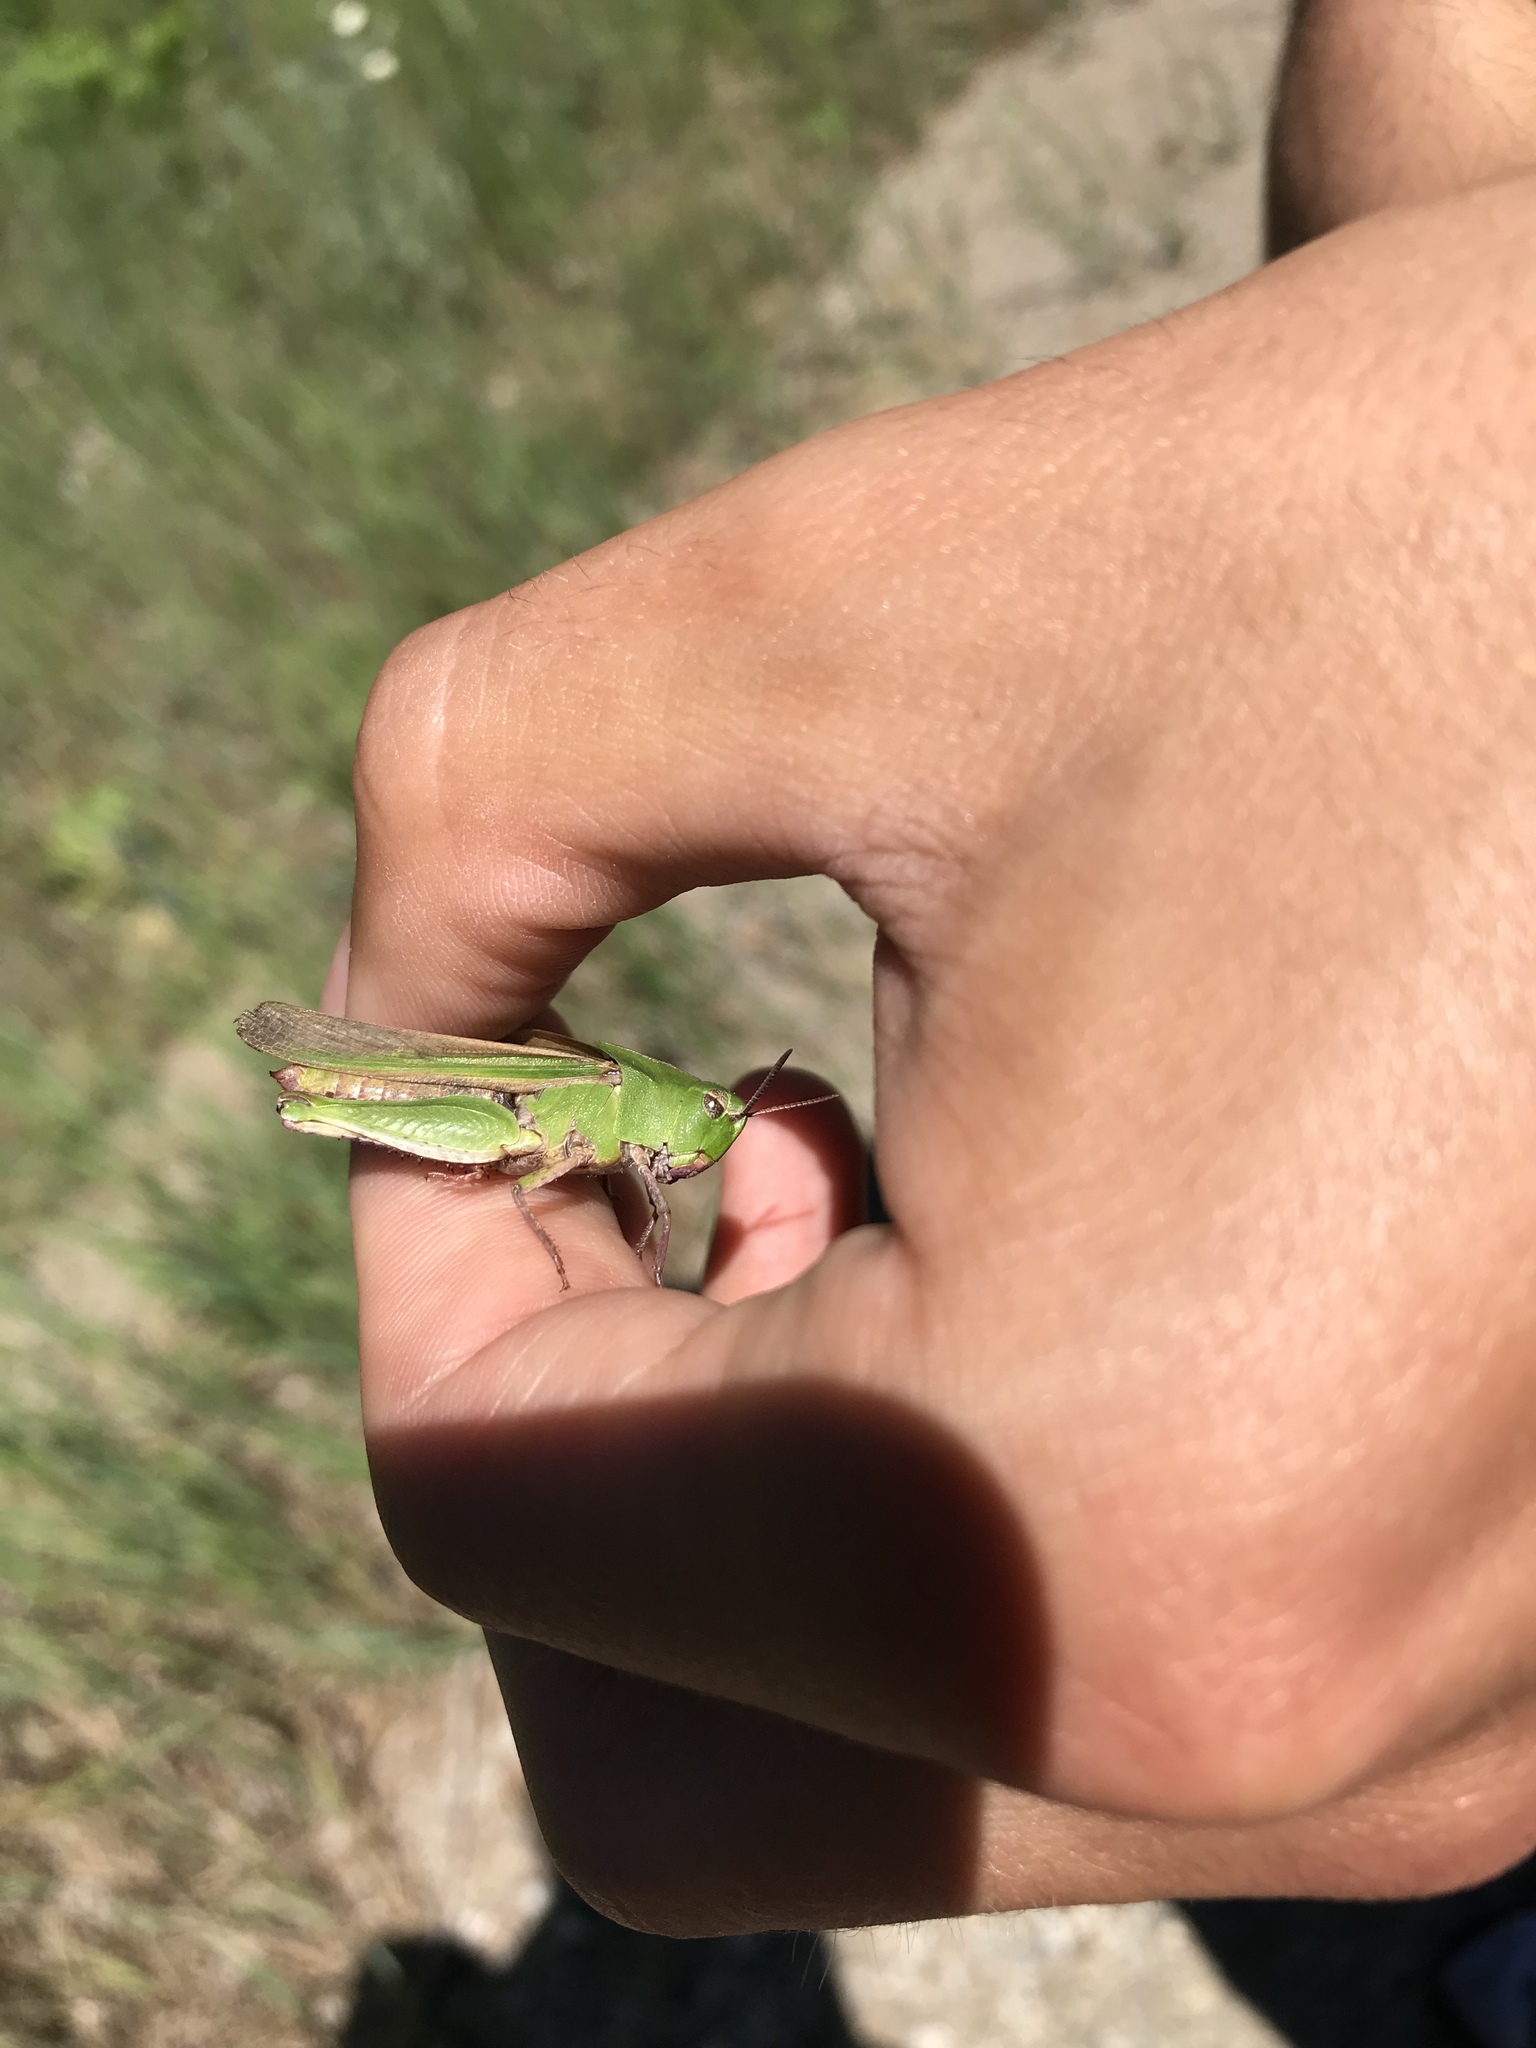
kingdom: Animalia
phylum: Arthropoda
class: Insecta
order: Orthoptera
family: Acrididae
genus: Chortophaga
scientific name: Chortophaga viridifasciata
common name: Green-striped grasshopper
